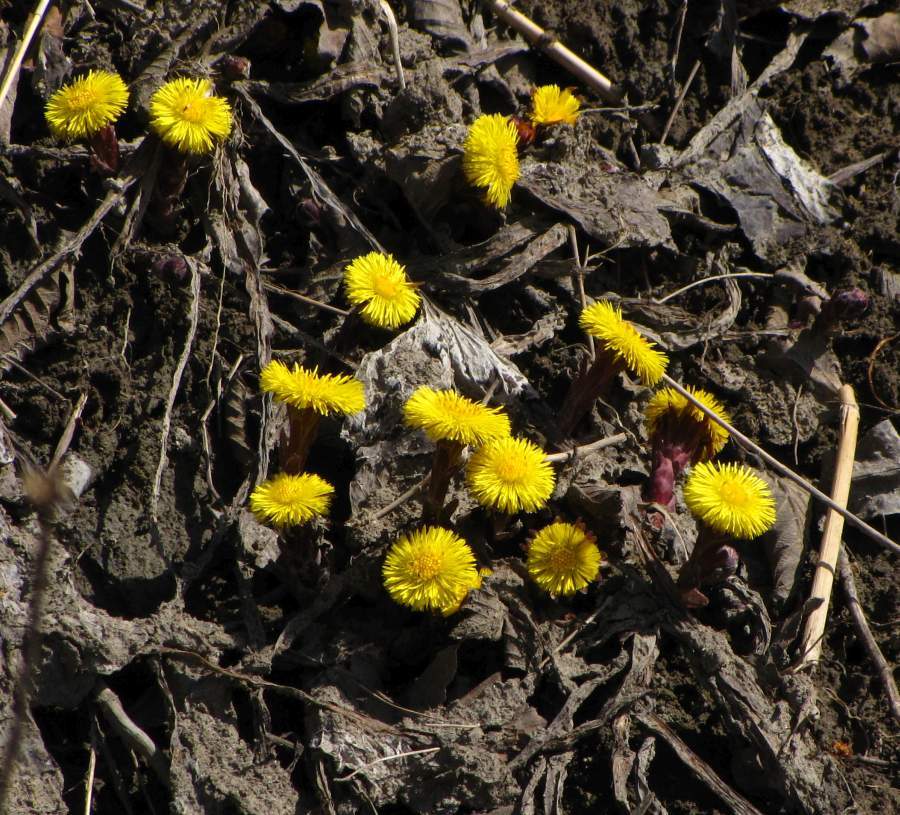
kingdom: Plantae
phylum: Tracheophyta
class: Magnoliopsida
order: Asterales
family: Asteraceae
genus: Tussilago
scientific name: Tussilago farfara
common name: Coltsfoot
